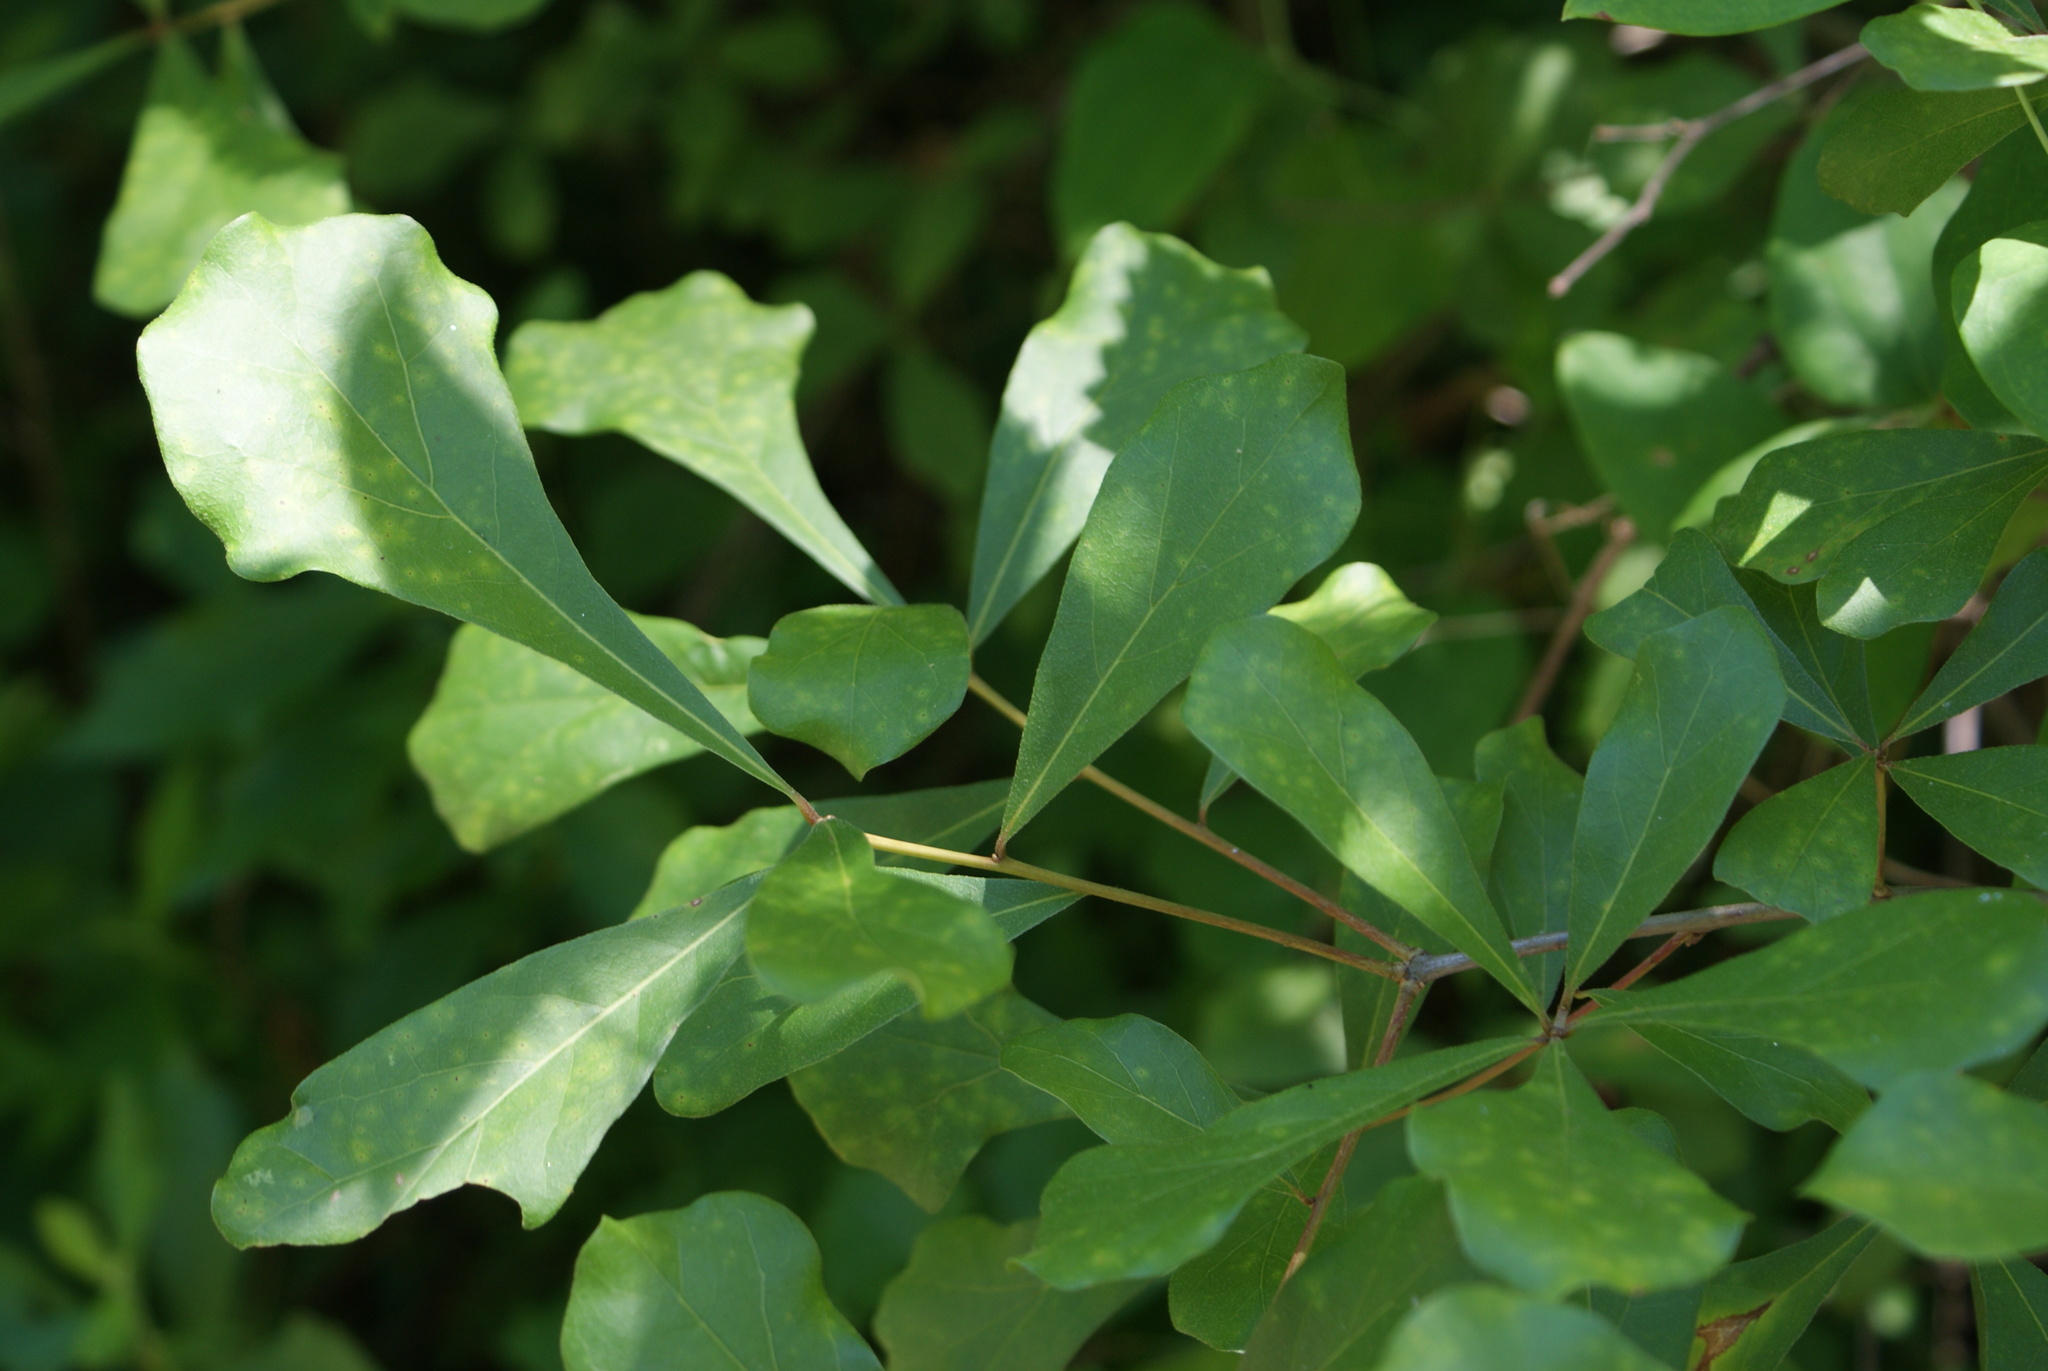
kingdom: Plantae
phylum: Tracheophyta
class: Magnoliopsida
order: Fagales
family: Fagaceae
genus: Quercus
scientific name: Quercus nigra
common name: Water oak
